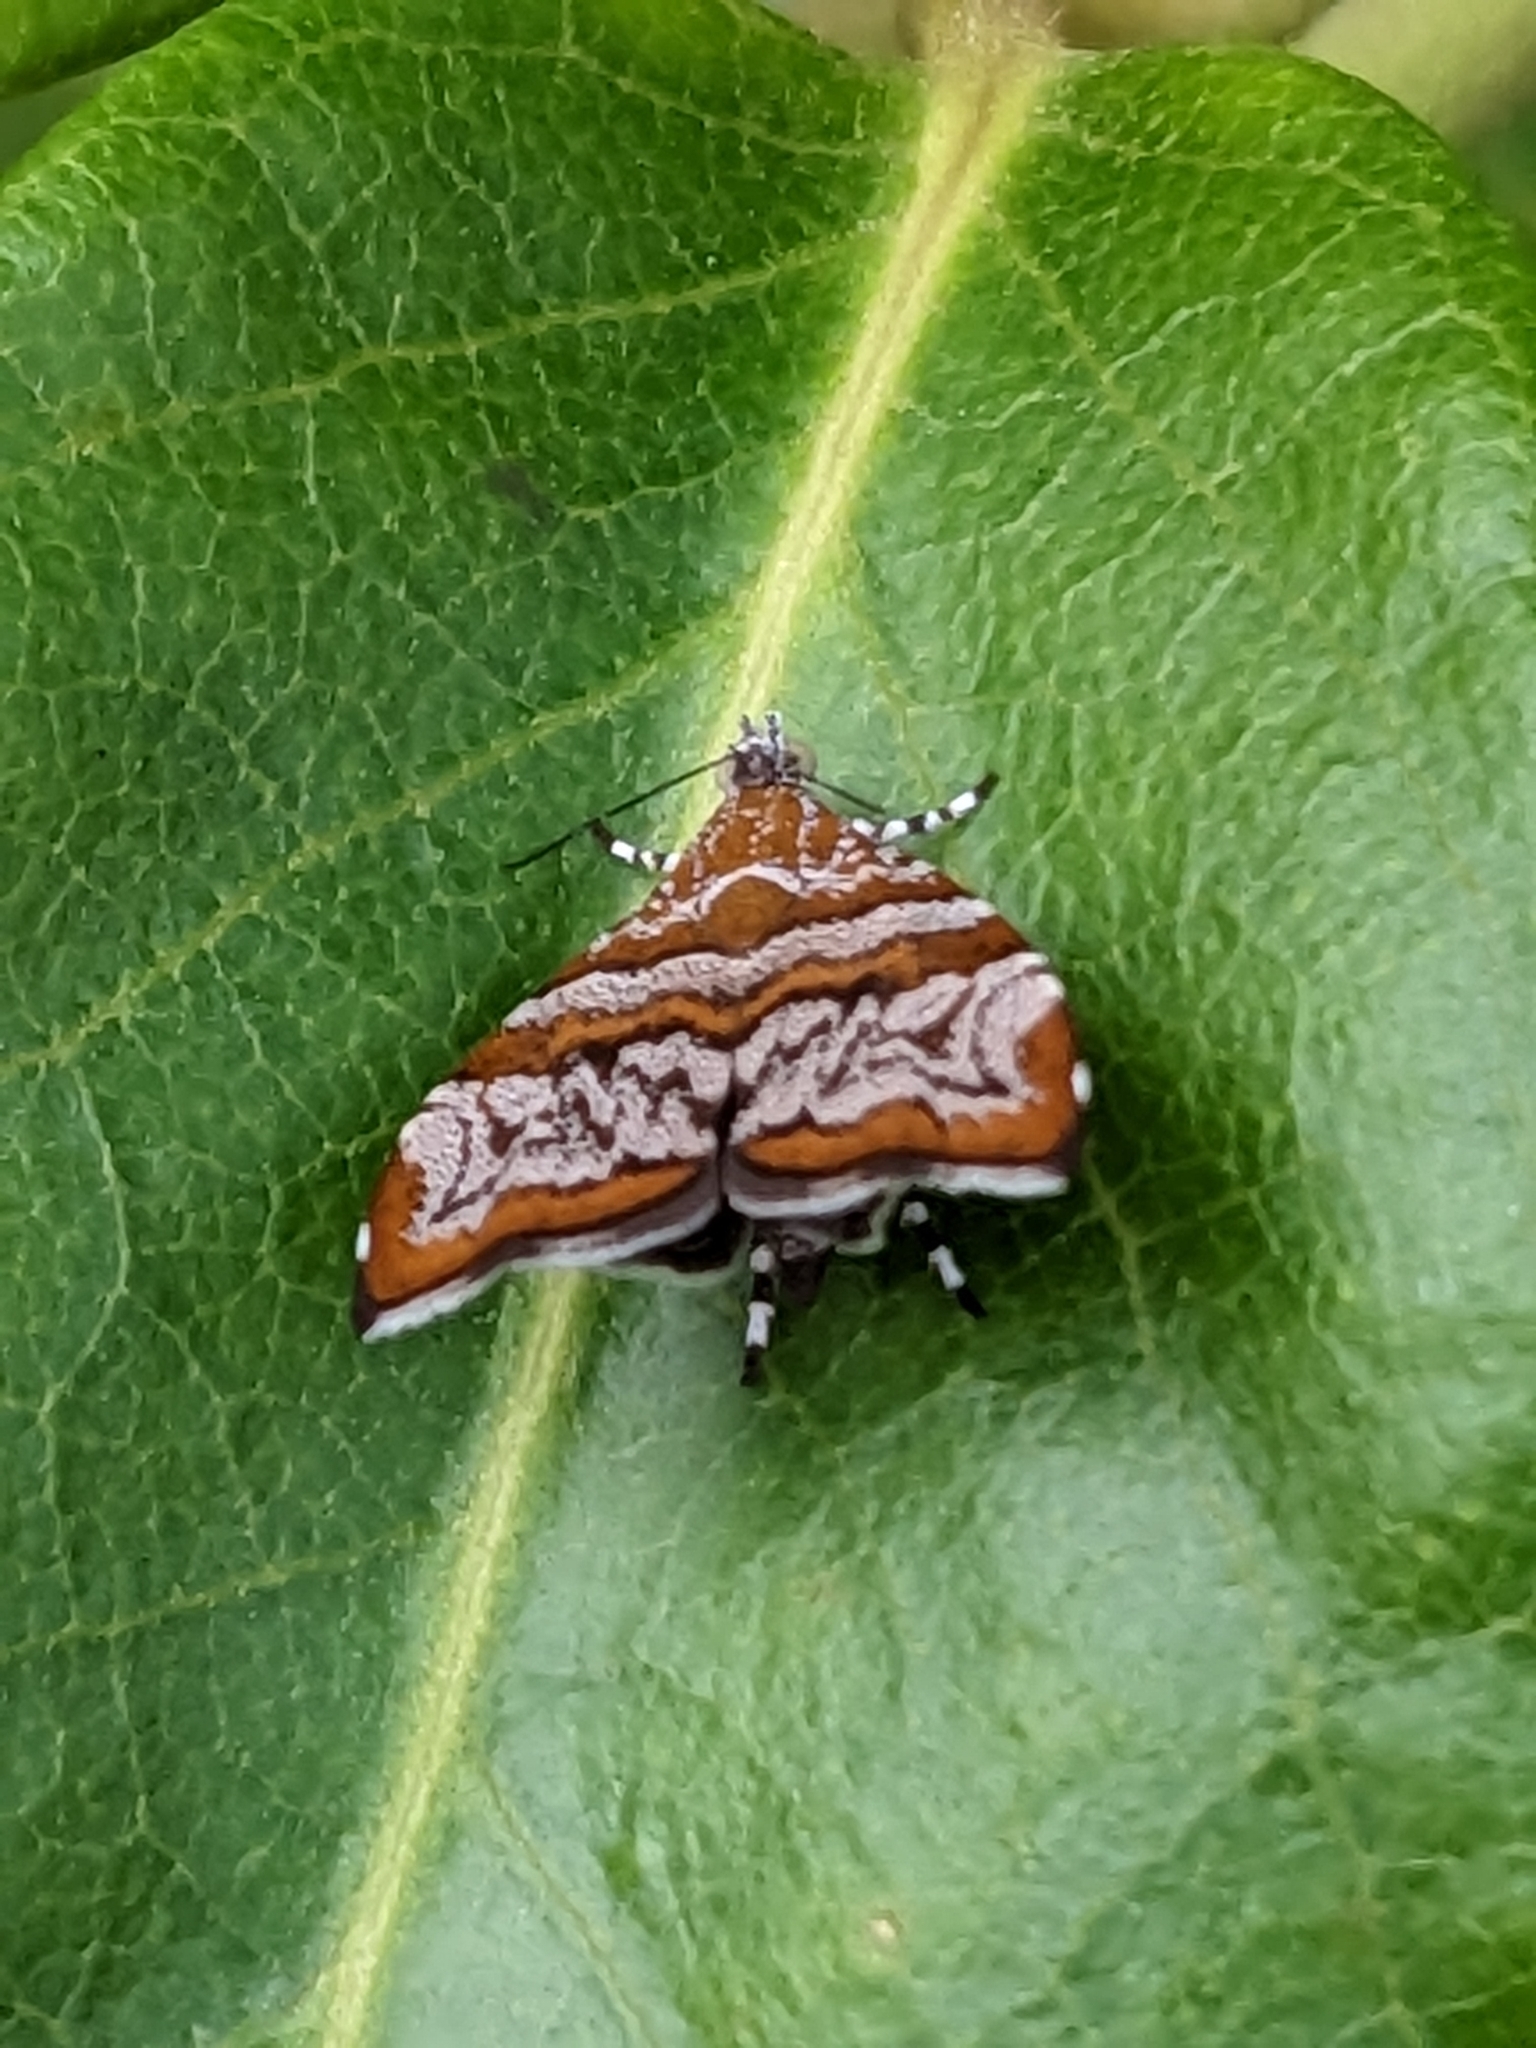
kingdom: Animalia
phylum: Arthropoda
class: Insecta
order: Lepidoptera
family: Choreutidae
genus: Choreutis
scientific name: Choreutis periploca
